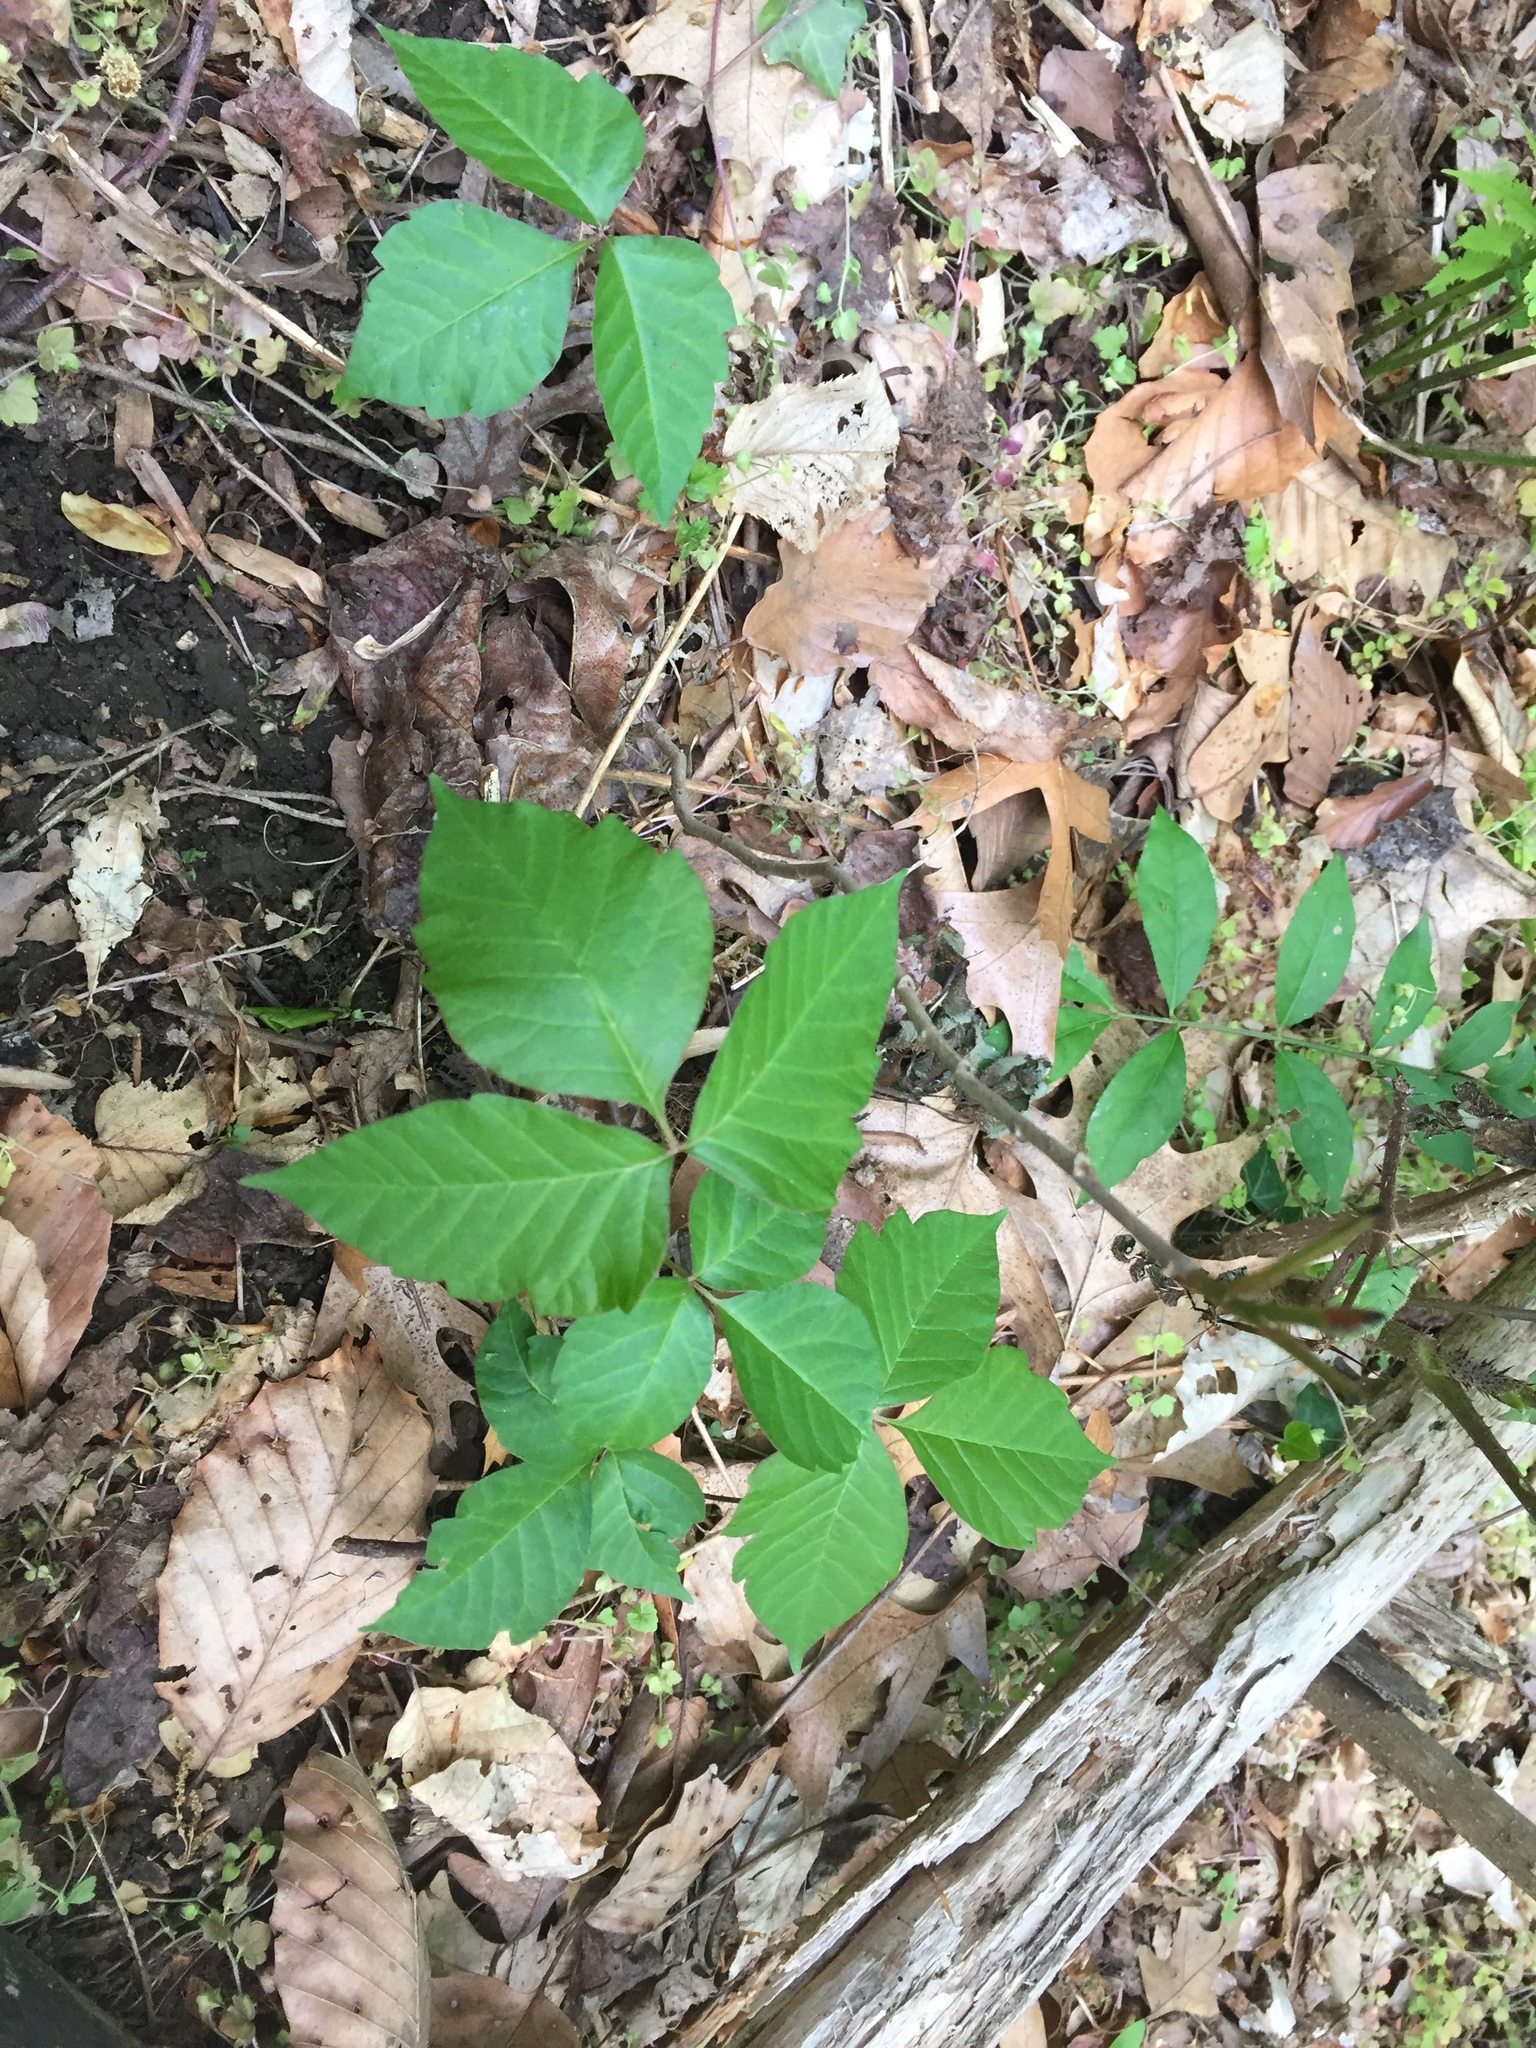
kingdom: Plantae
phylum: Tracheophyta
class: Magnoliopsida
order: Sapindales
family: Anacardiaceae
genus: Toxicodendron
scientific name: Toxicodendron radicans
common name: Poison ivy
